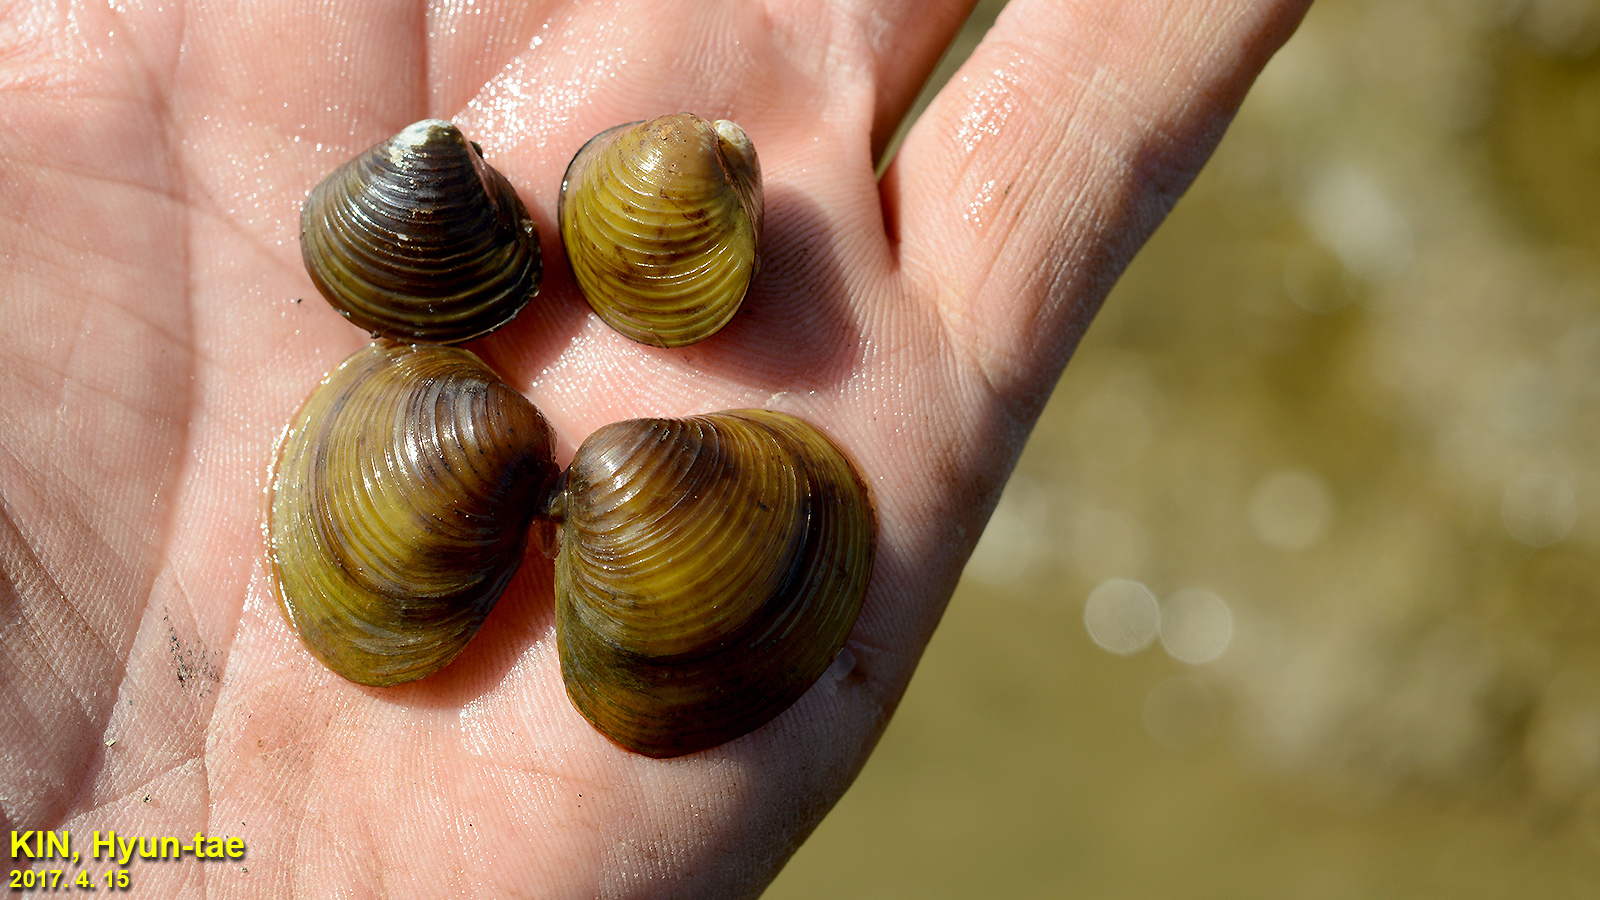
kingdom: Animalia
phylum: Mollusca
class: Bivalvia
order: Venerida
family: Cyrenidae
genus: Corbicula
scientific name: Corbicula fluminea
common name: Asian clam
